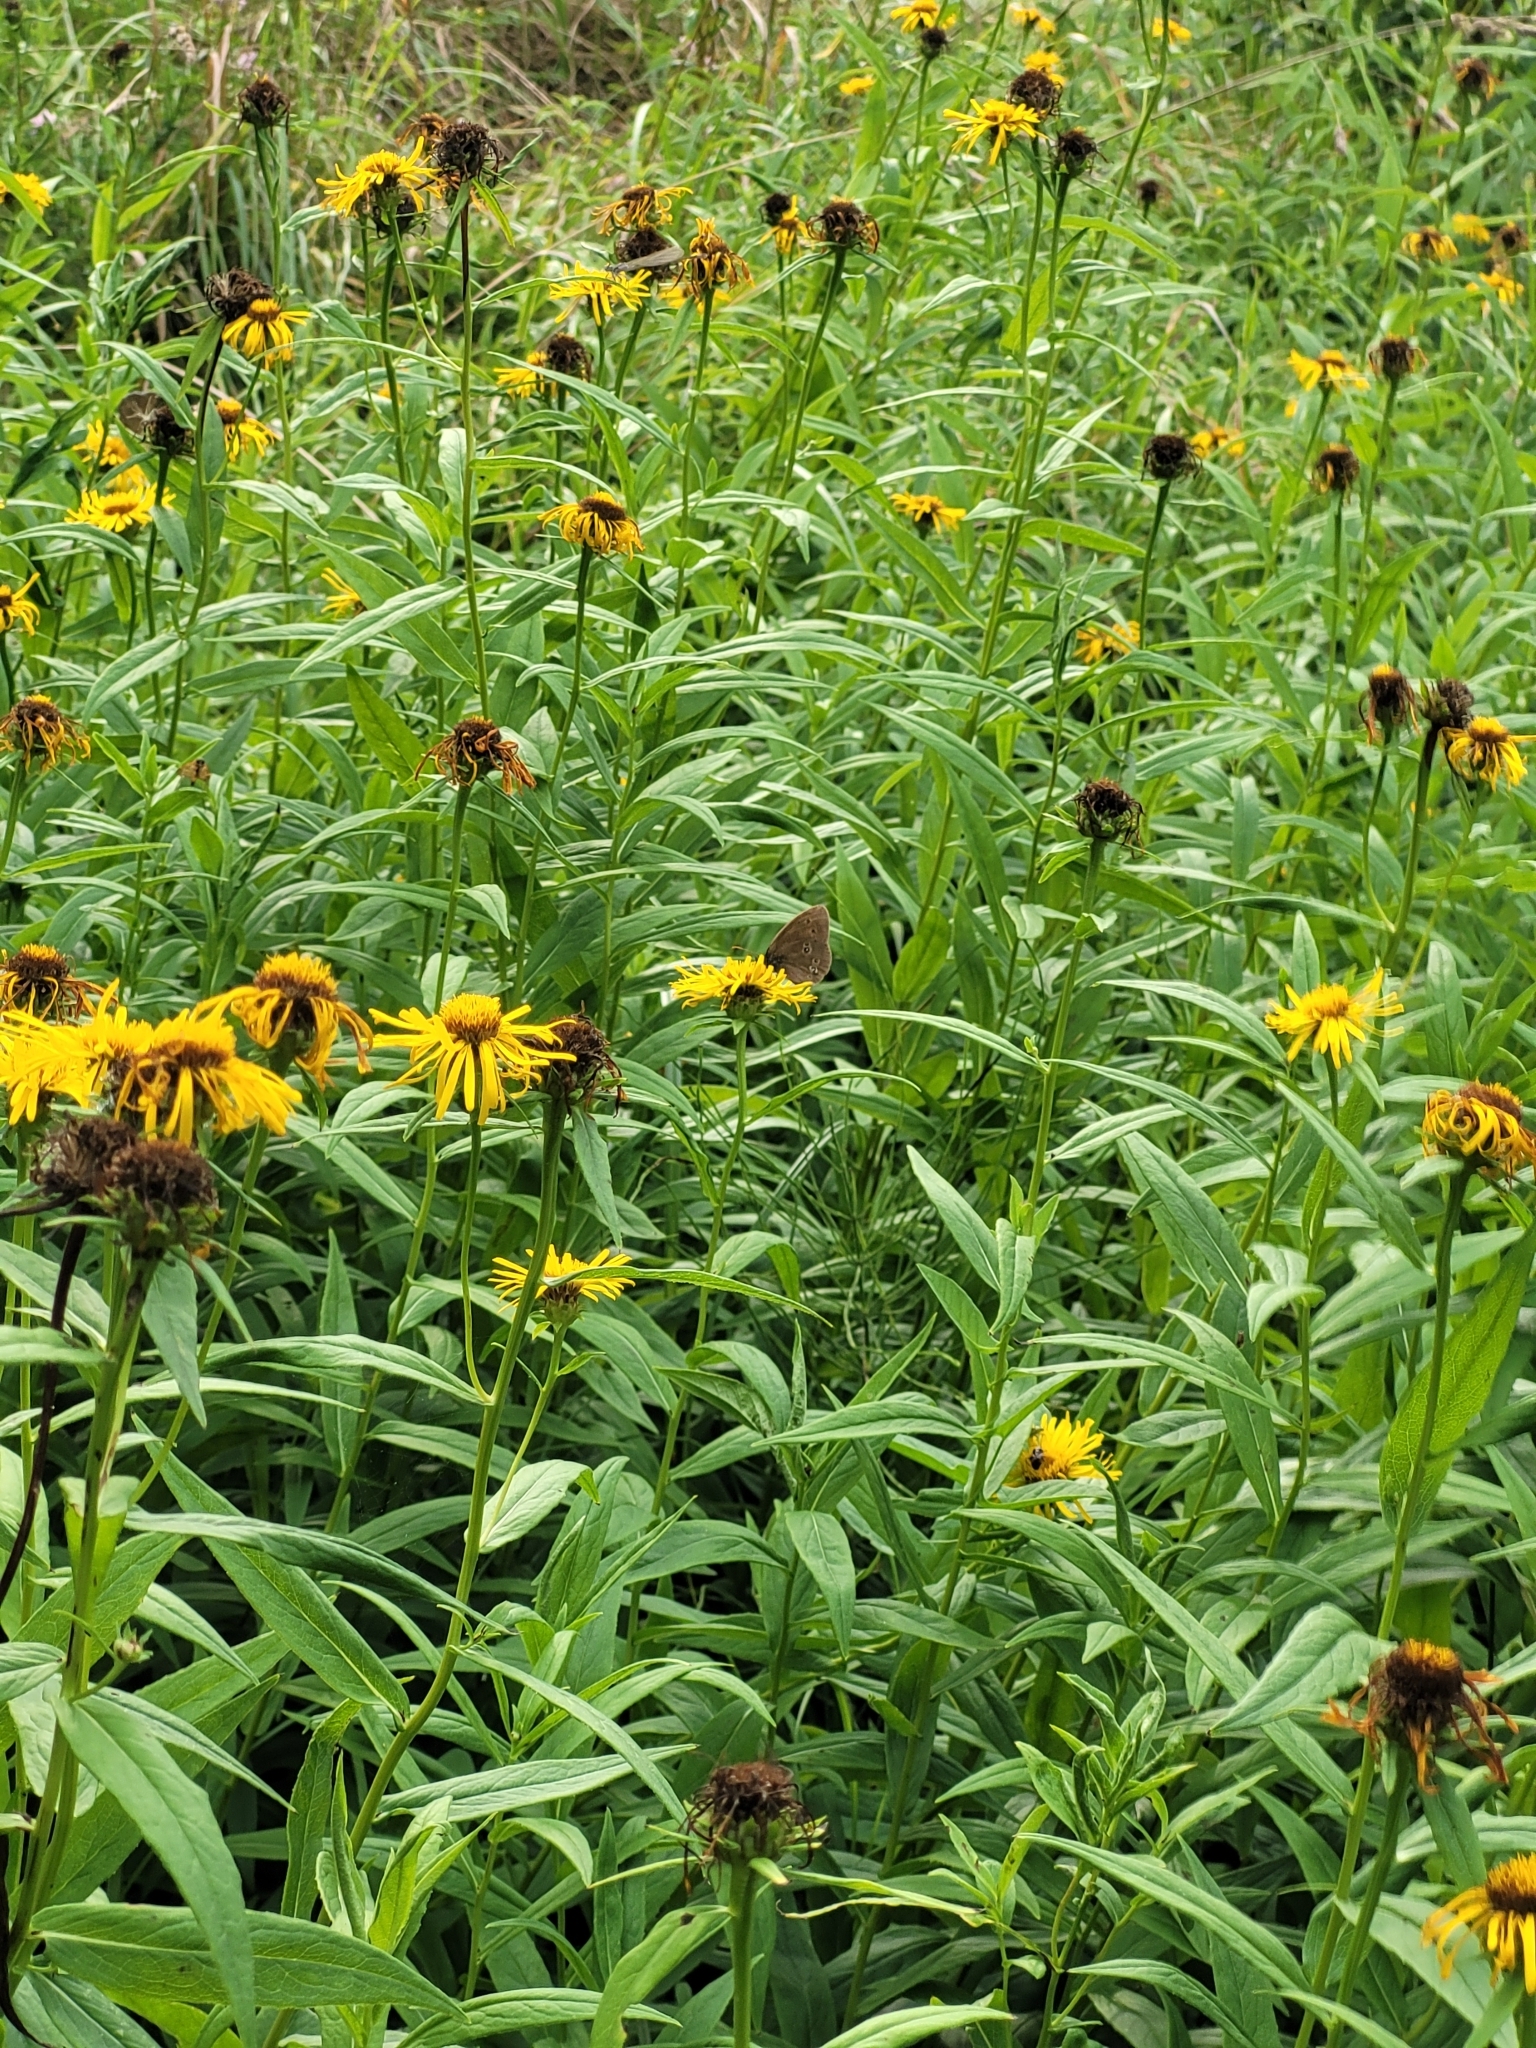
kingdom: Animalia
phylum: Arthropoda
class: Insecta
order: Lepidoptera
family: Nymphalidae
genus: Aphantopus
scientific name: Aphantopus hyperantus
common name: Ringlet
